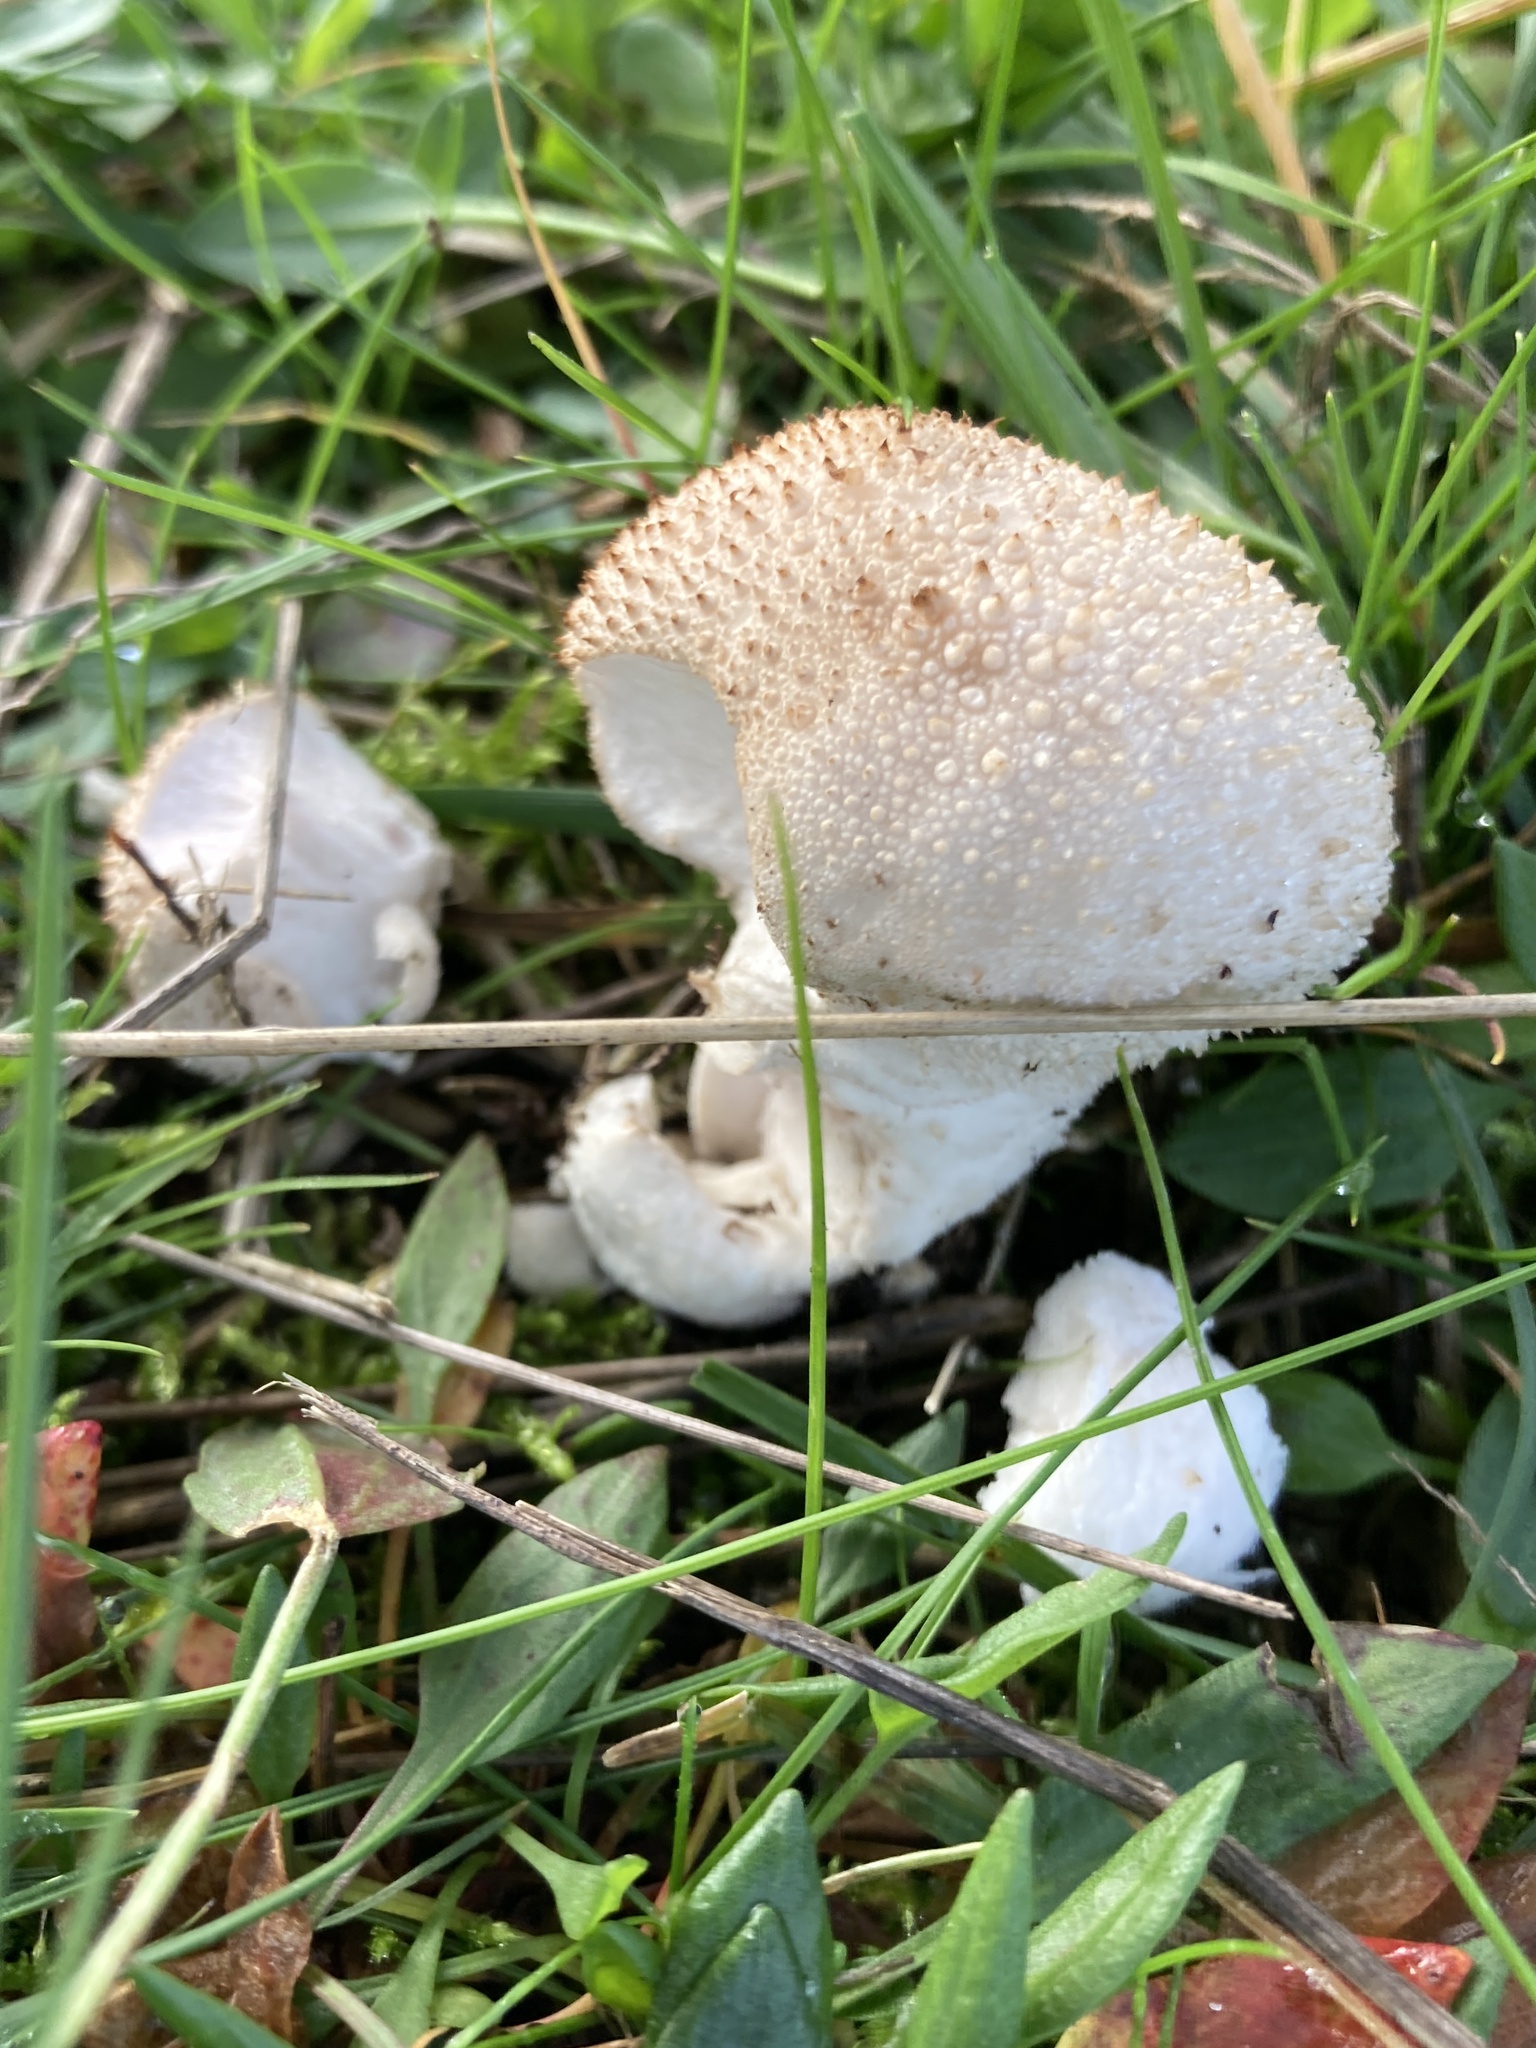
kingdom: Fungi
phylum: Basidiomycota
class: Agaricomycetes
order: Agaricales
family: Lycoperdaceae
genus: Lycoperdon
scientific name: Lycoperdon perlatum
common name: Common puffball
